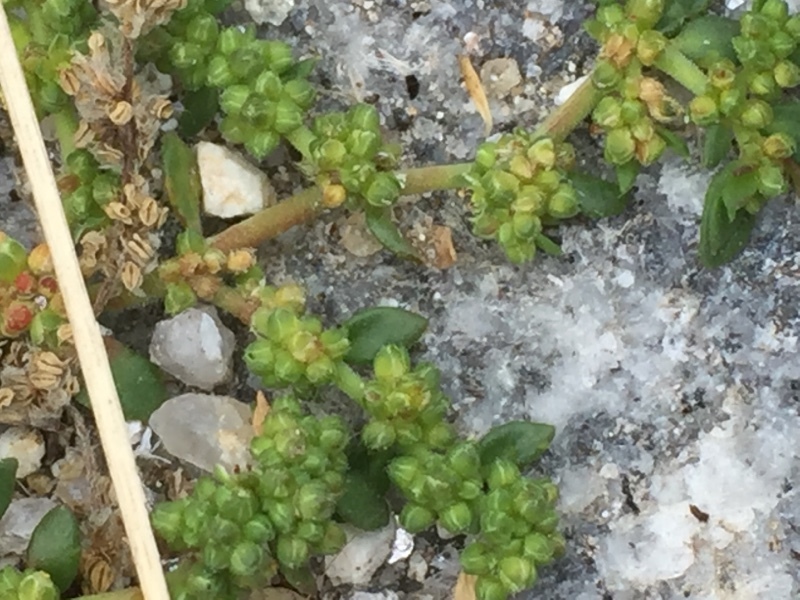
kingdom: Plantae
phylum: Tracheophyta
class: Magnoliopsida
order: Caryophyllales
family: Caryophyllaceae
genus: Herniaria
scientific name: Herniaria glabra
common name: Smooth rupturewort
